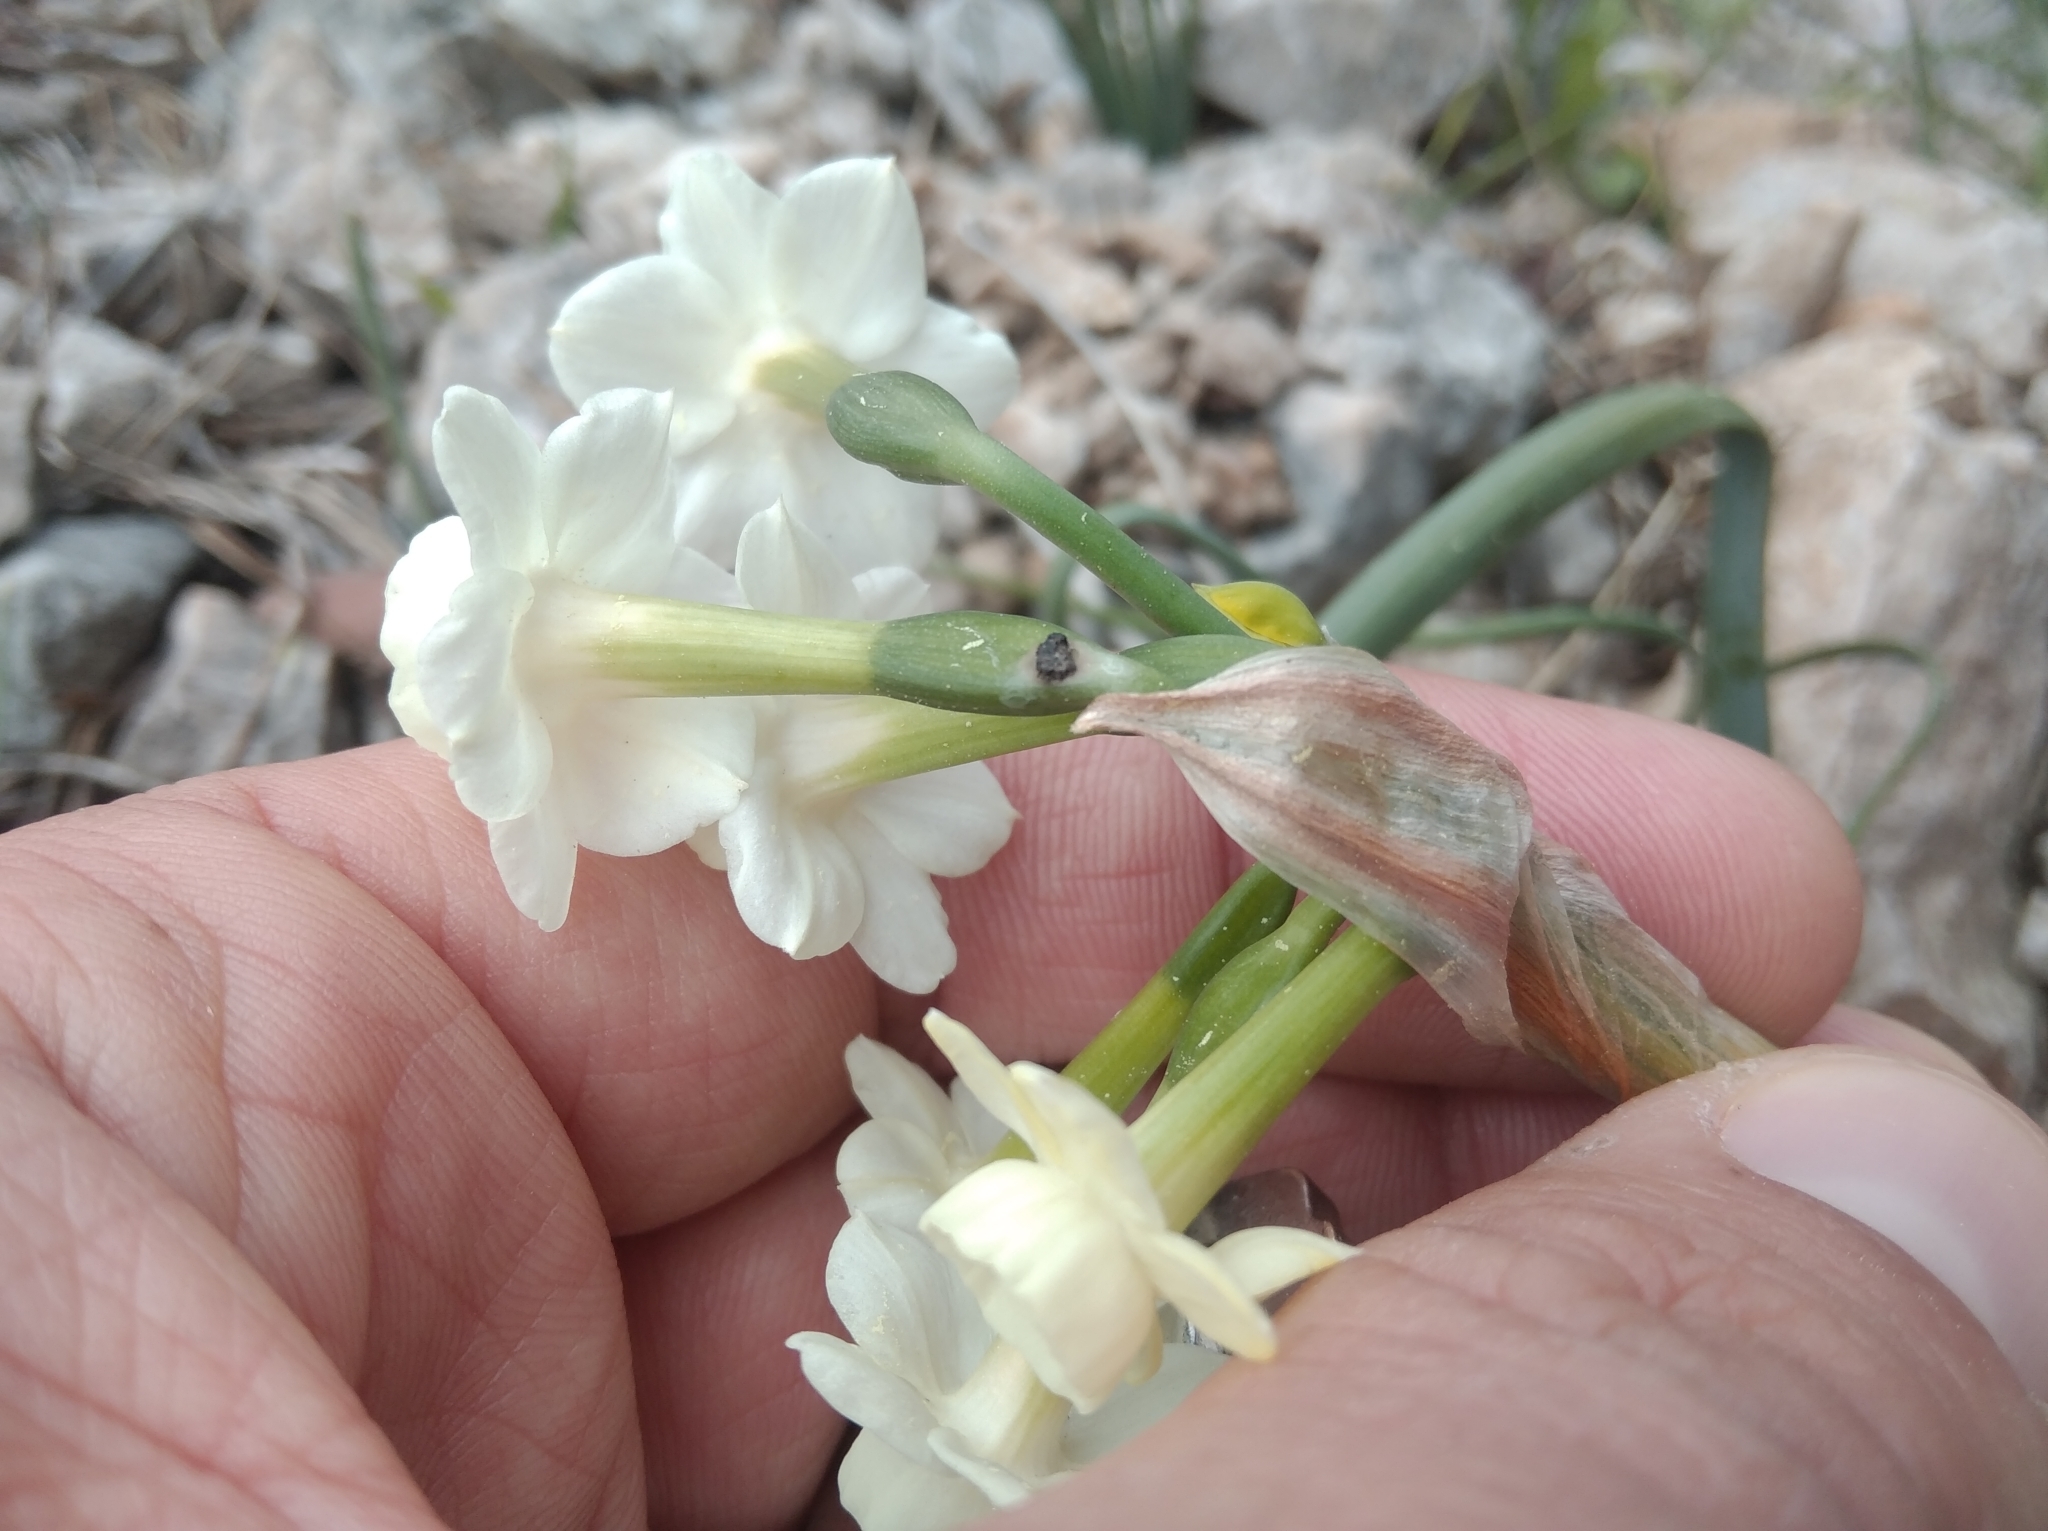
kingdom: Plantae
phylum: Tracheophyta
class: Liliopsida
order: Asparagales
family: Amaryllidaceae
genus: Narcissus
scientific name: Narcissus dubius
